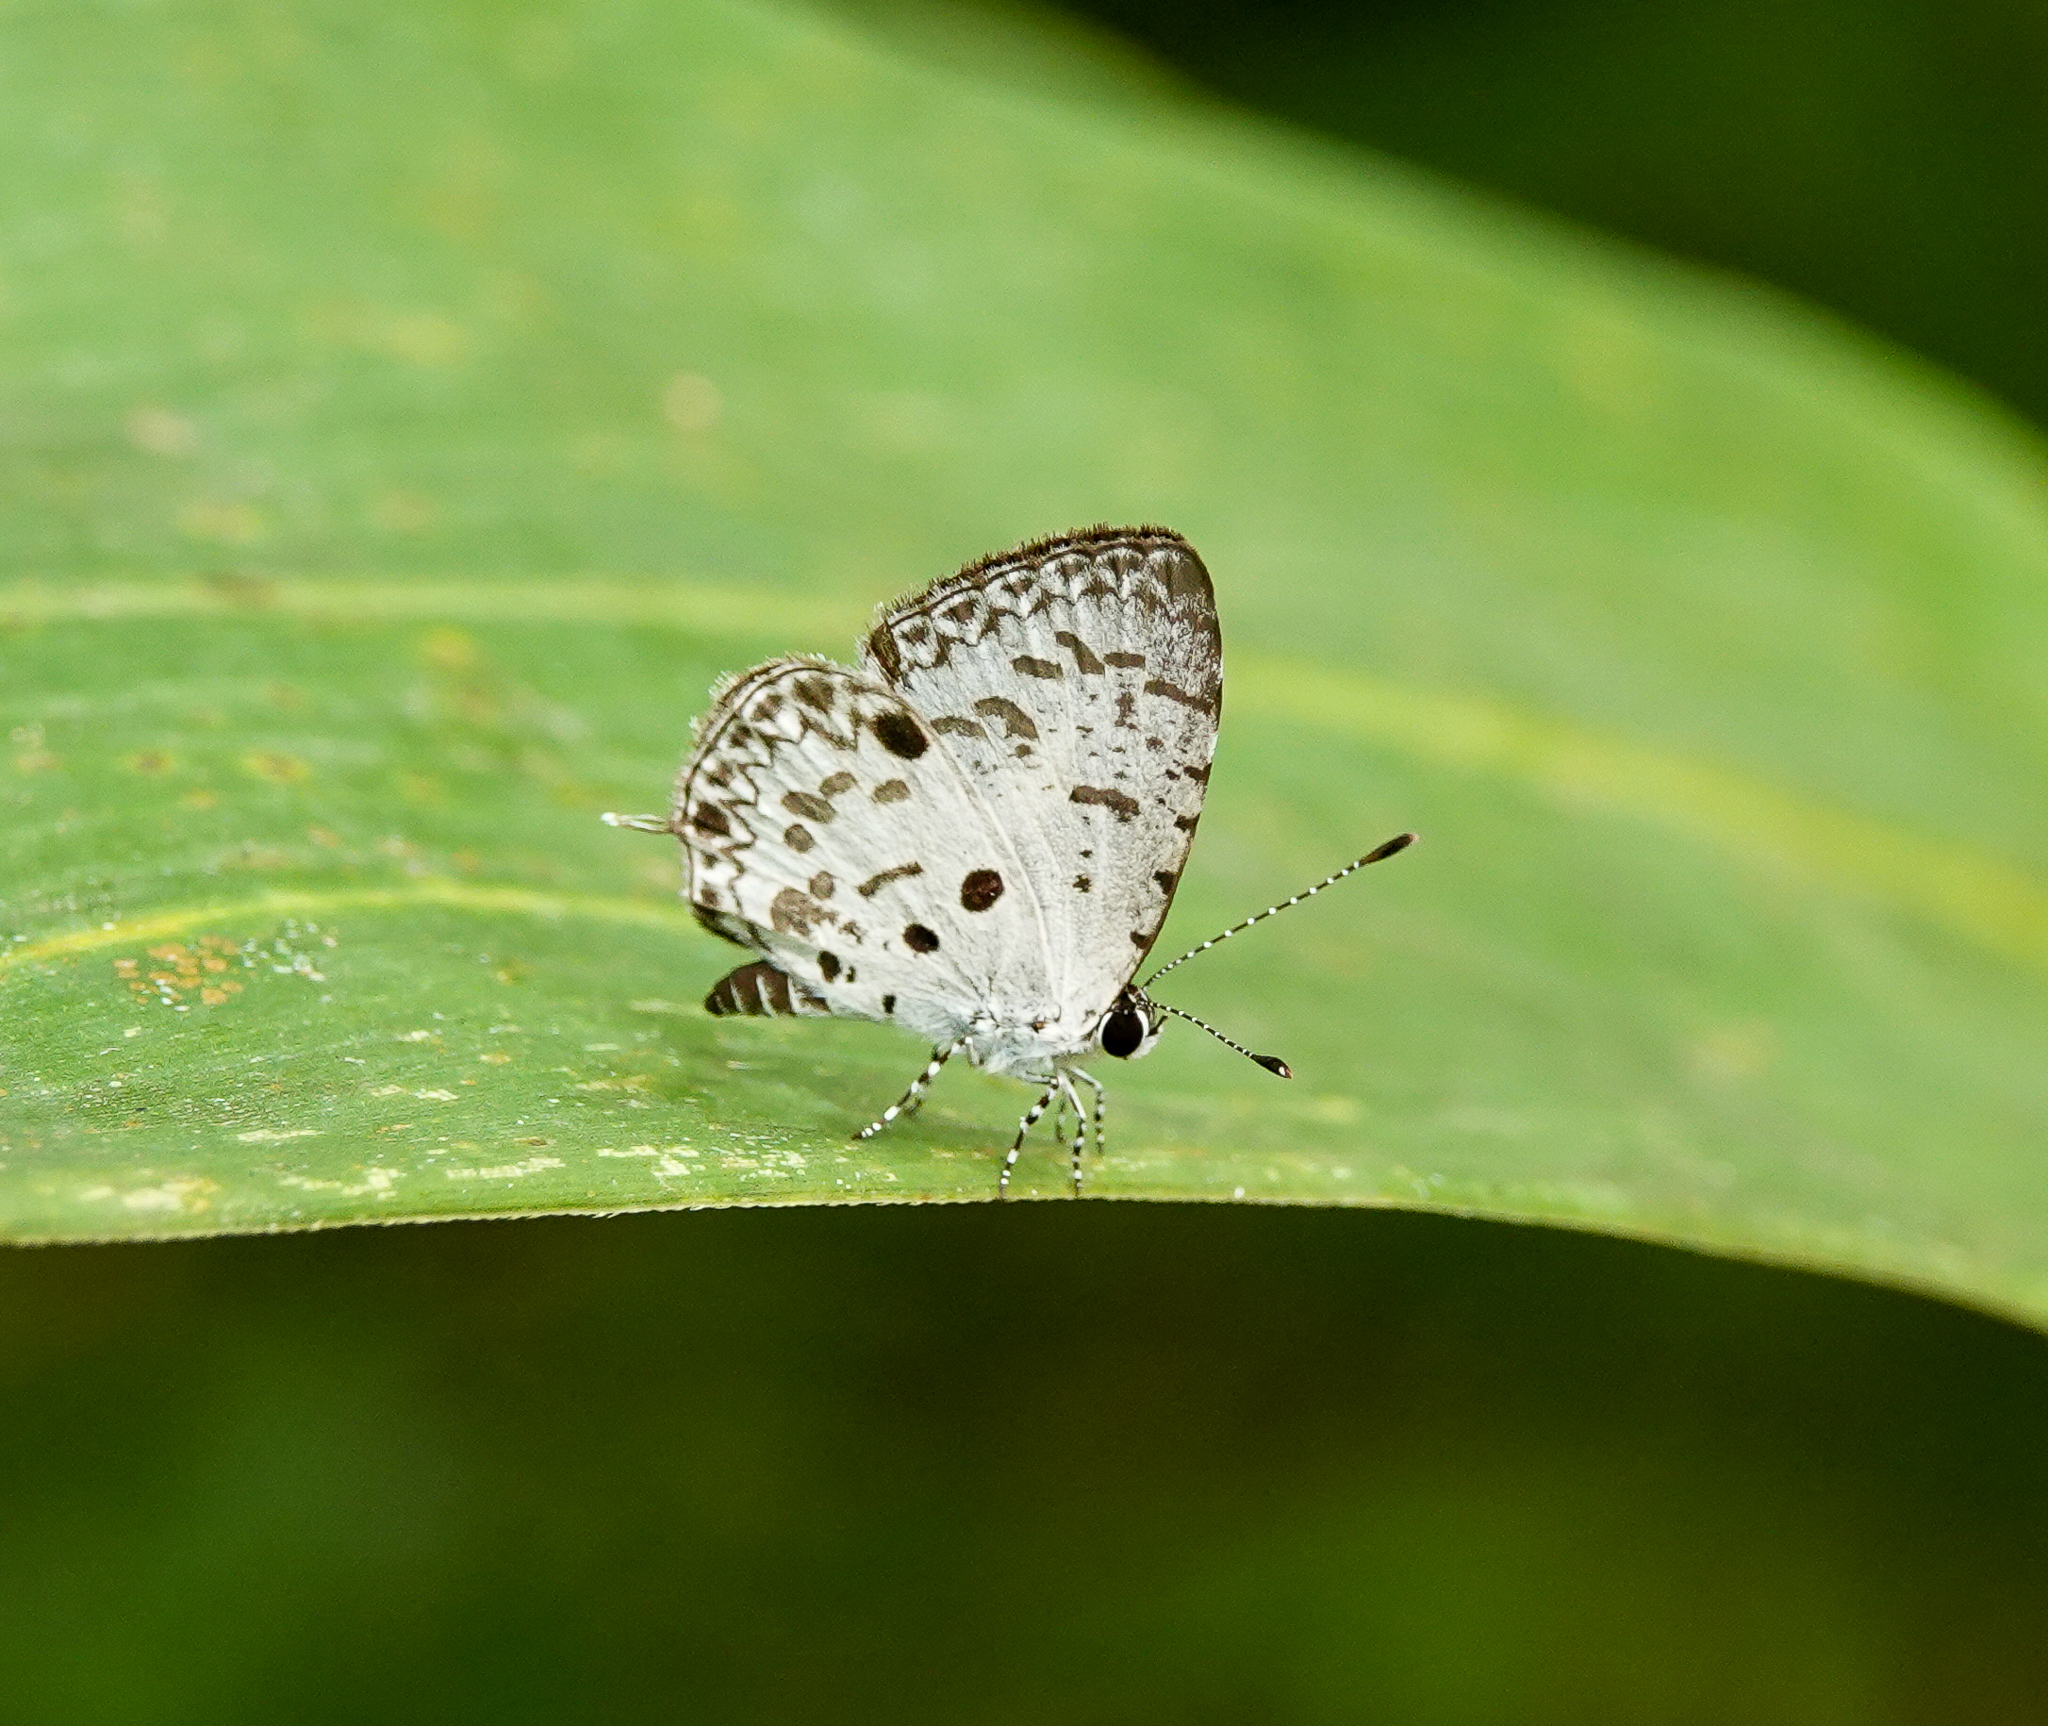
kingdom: Animalia
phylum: Arthropoda
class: Insecta
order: Lepidoptera
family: Lycaenidae
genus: Megisba
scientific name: Megisba malaya
